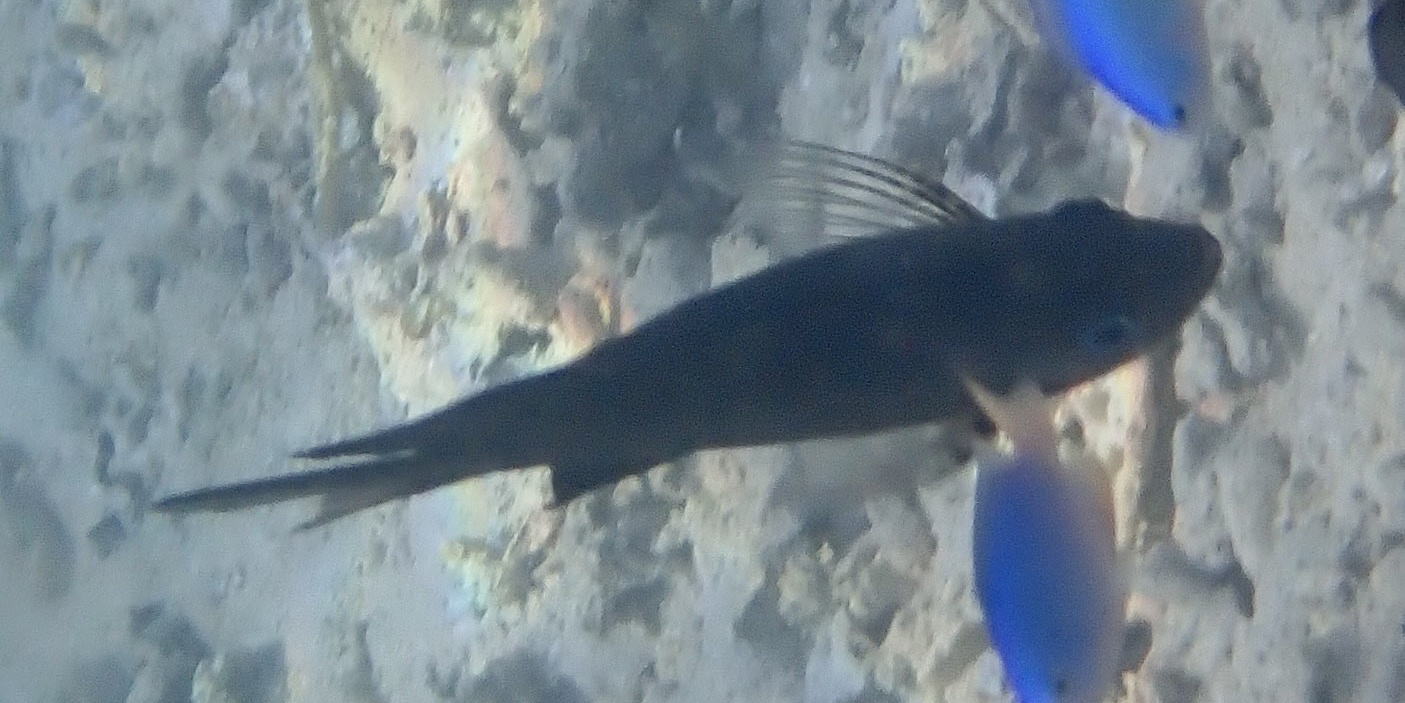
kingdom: Animalia
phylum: Chordata
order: Perciformes
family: Pomacentridae
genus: Acanthochromis
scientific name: Acanthochromis polyacanthus
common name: Spiny chromis
